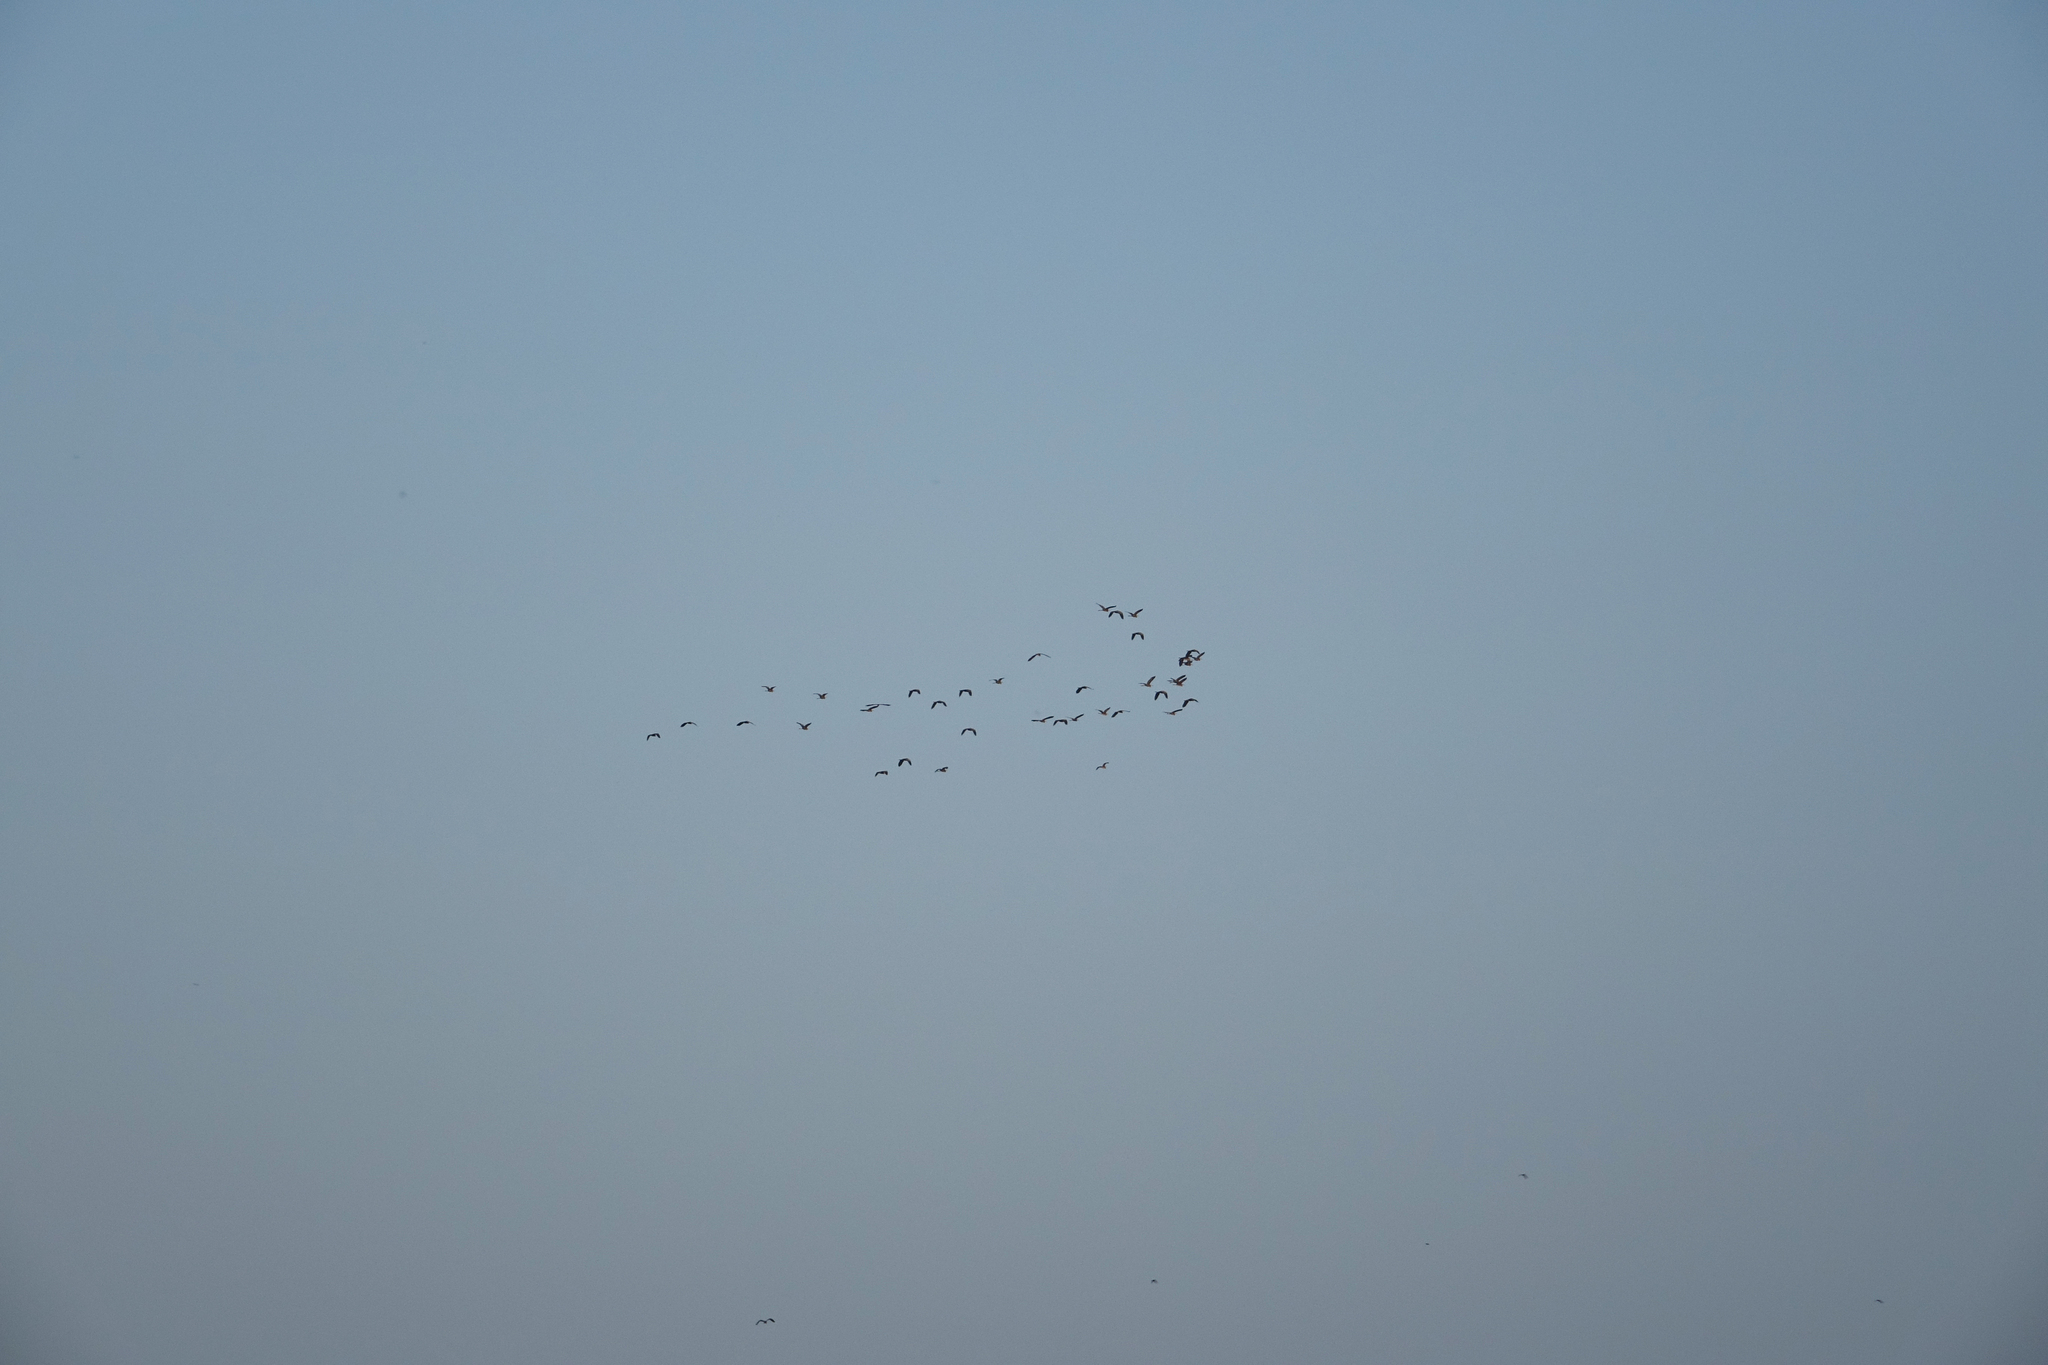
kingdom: Animalia
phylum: Chordata
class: Aves
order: Pelecaniformes
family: Ardeidae
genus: Ardea
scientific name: Ardea cinerea
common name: Grey heron
